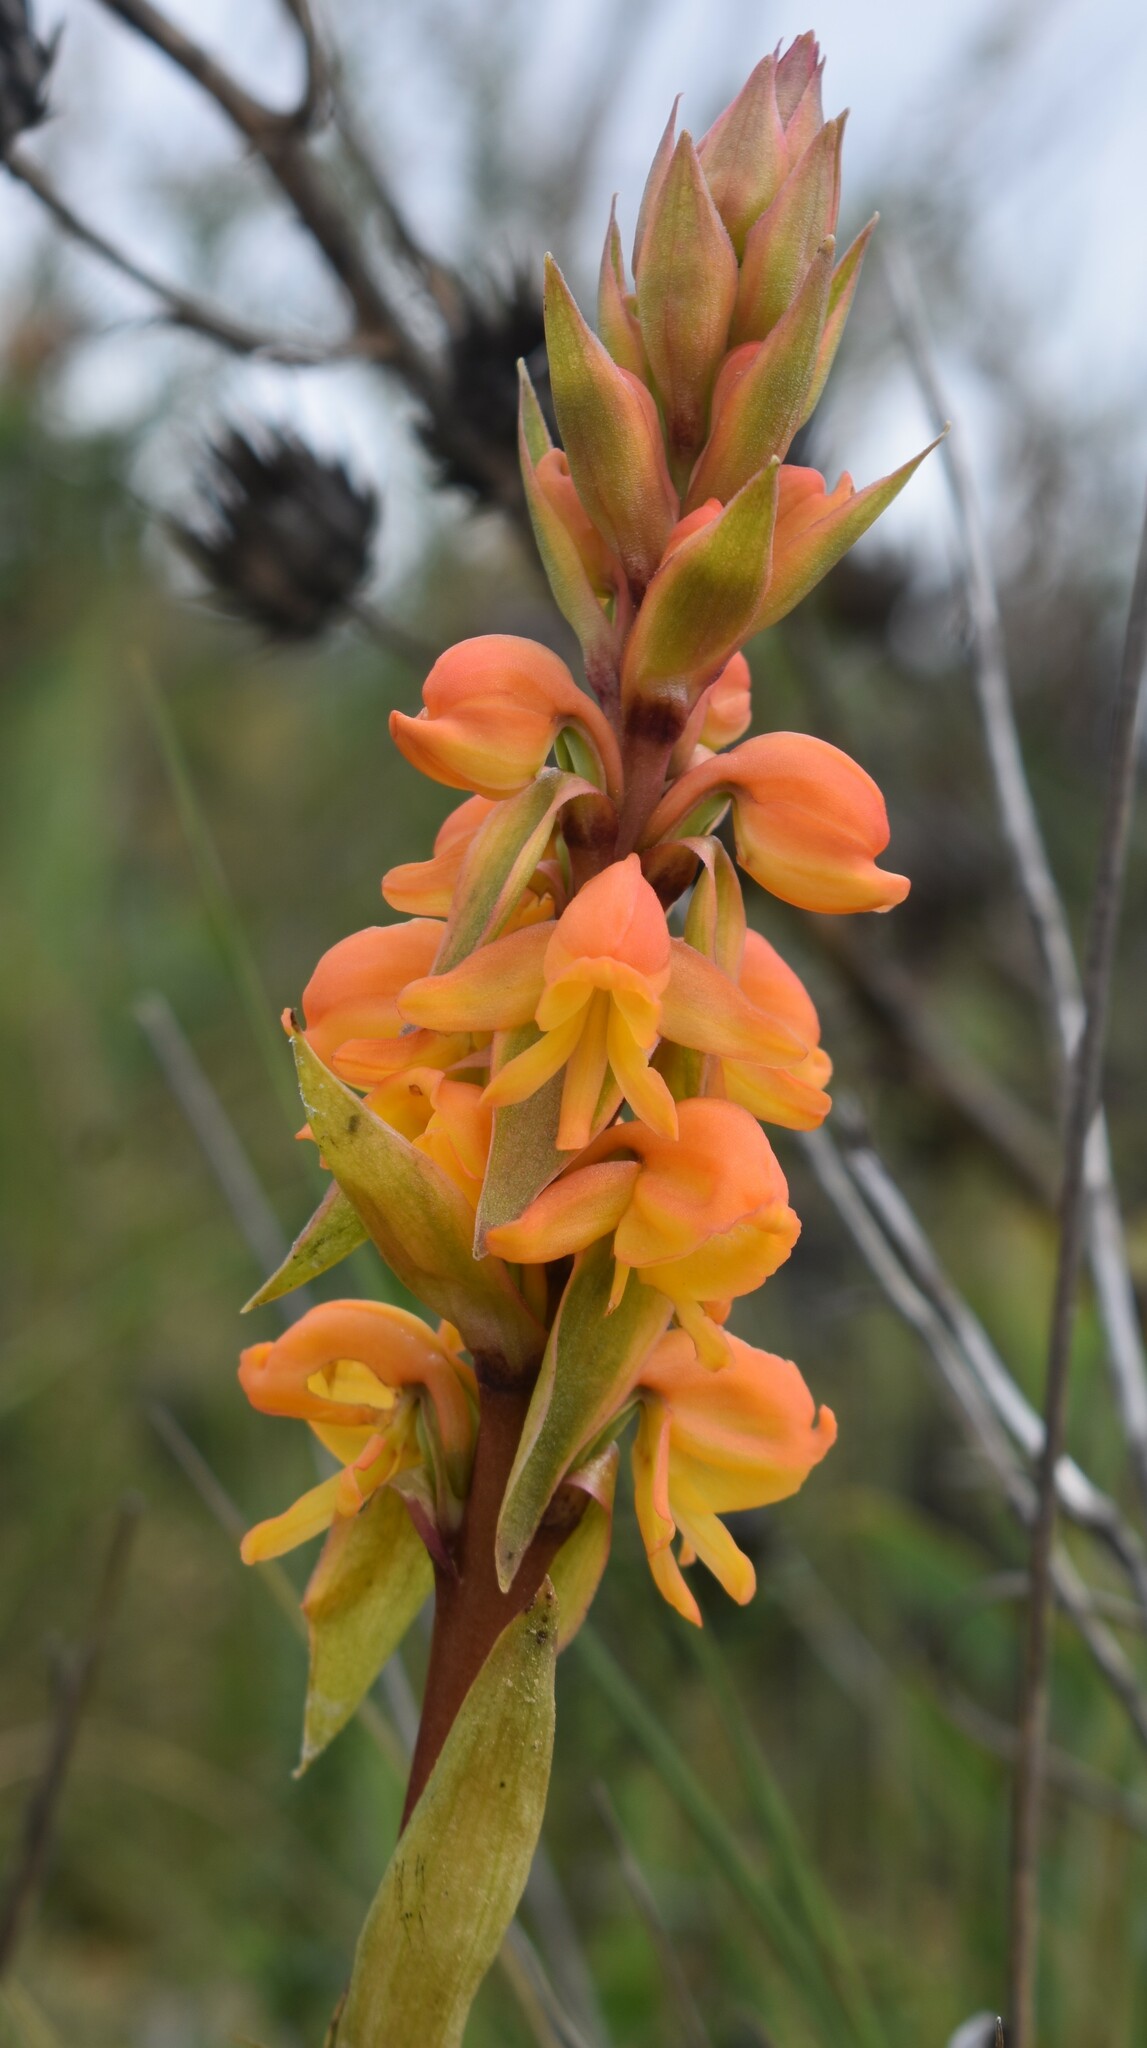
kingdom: Plantae
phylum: Tracheophyta
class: Liliopsida
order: Asparagales
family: Orchidaceae
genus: Satyrium
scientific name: Satyrium coriifolium
